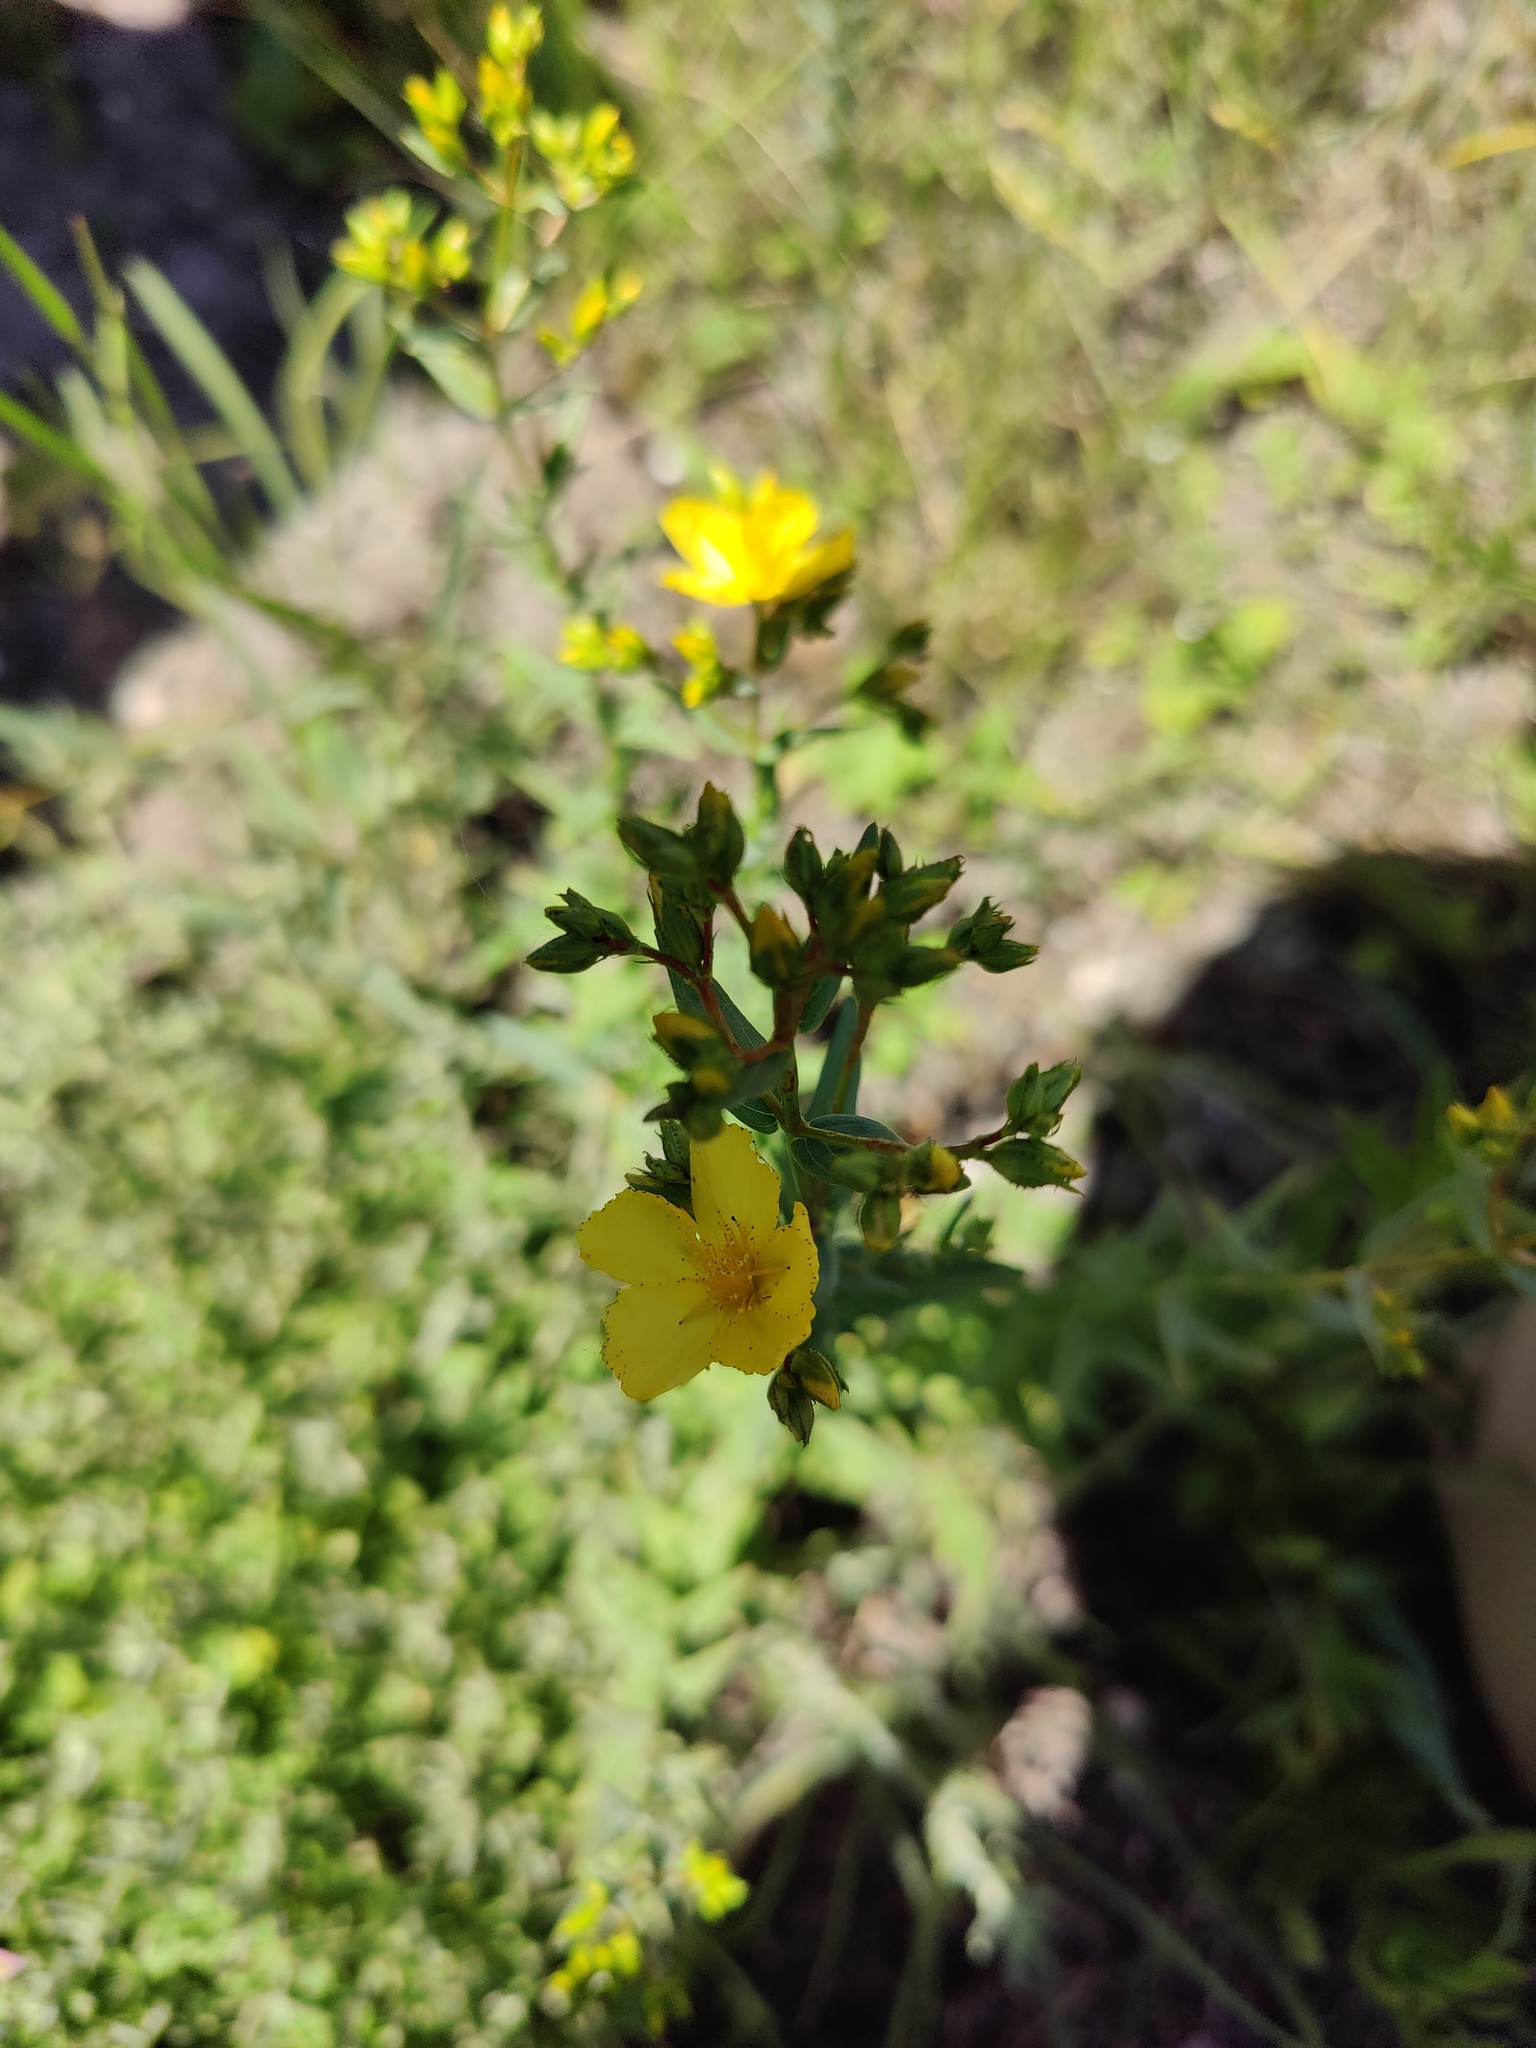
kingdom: Plantae
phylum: Tracheophyta
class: Magnoliopsida
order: Malpighiales
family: Hypericaceae
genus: Hypericum
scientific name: Hypericum elegans
